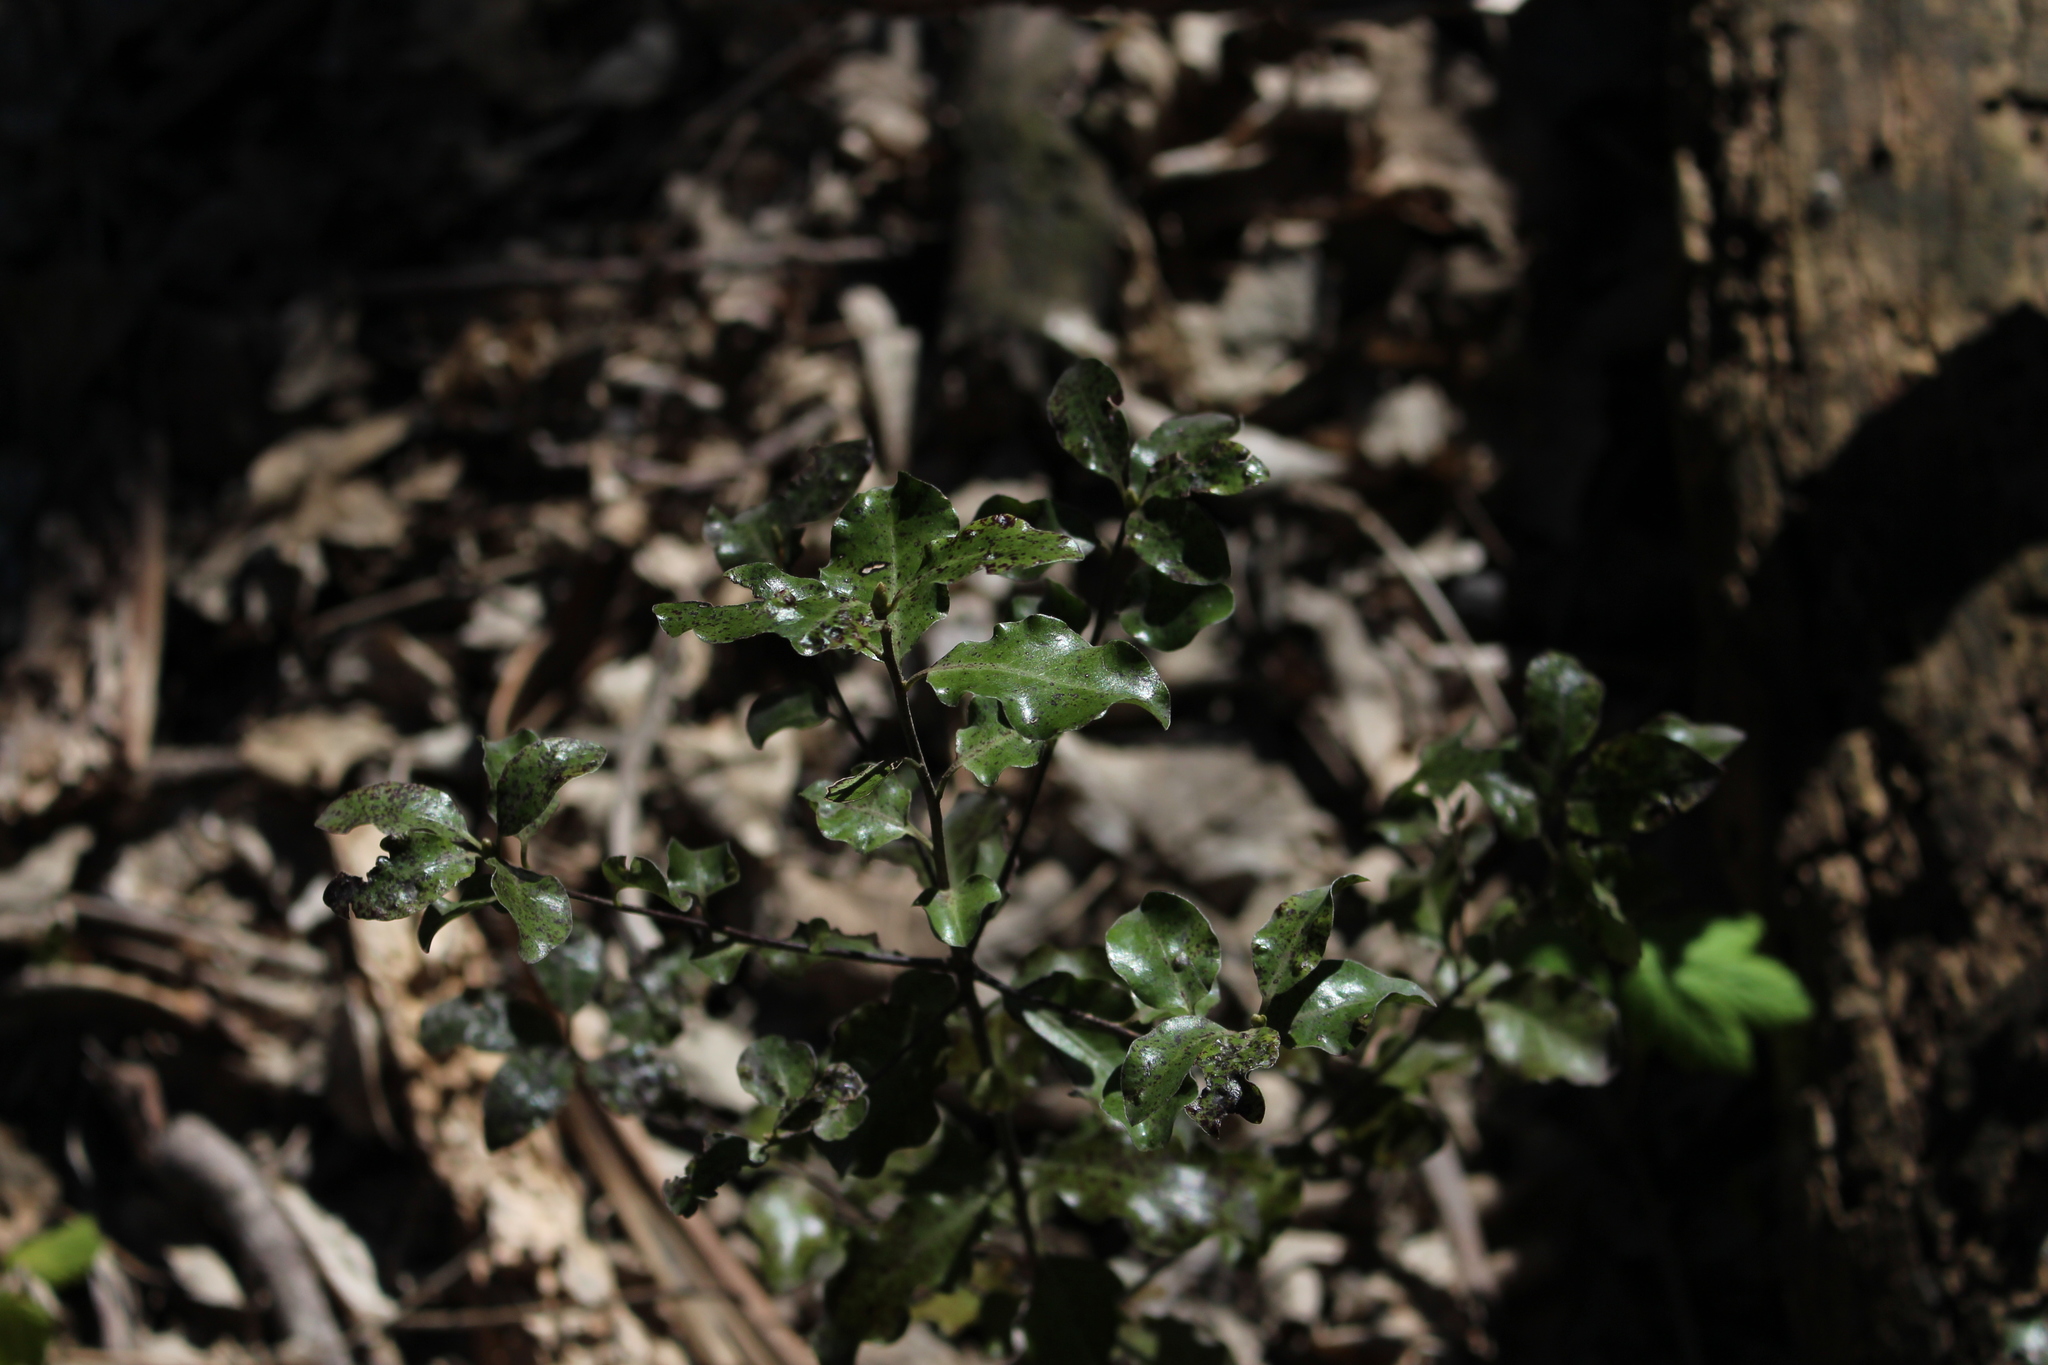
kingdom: Plantae
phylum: Tracheophyta
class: Magnoliopsida
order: Apiales
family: Pittosporaceae
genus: Pittosporum
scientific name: Pittosporum tenuifolium
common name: Kohuhu
